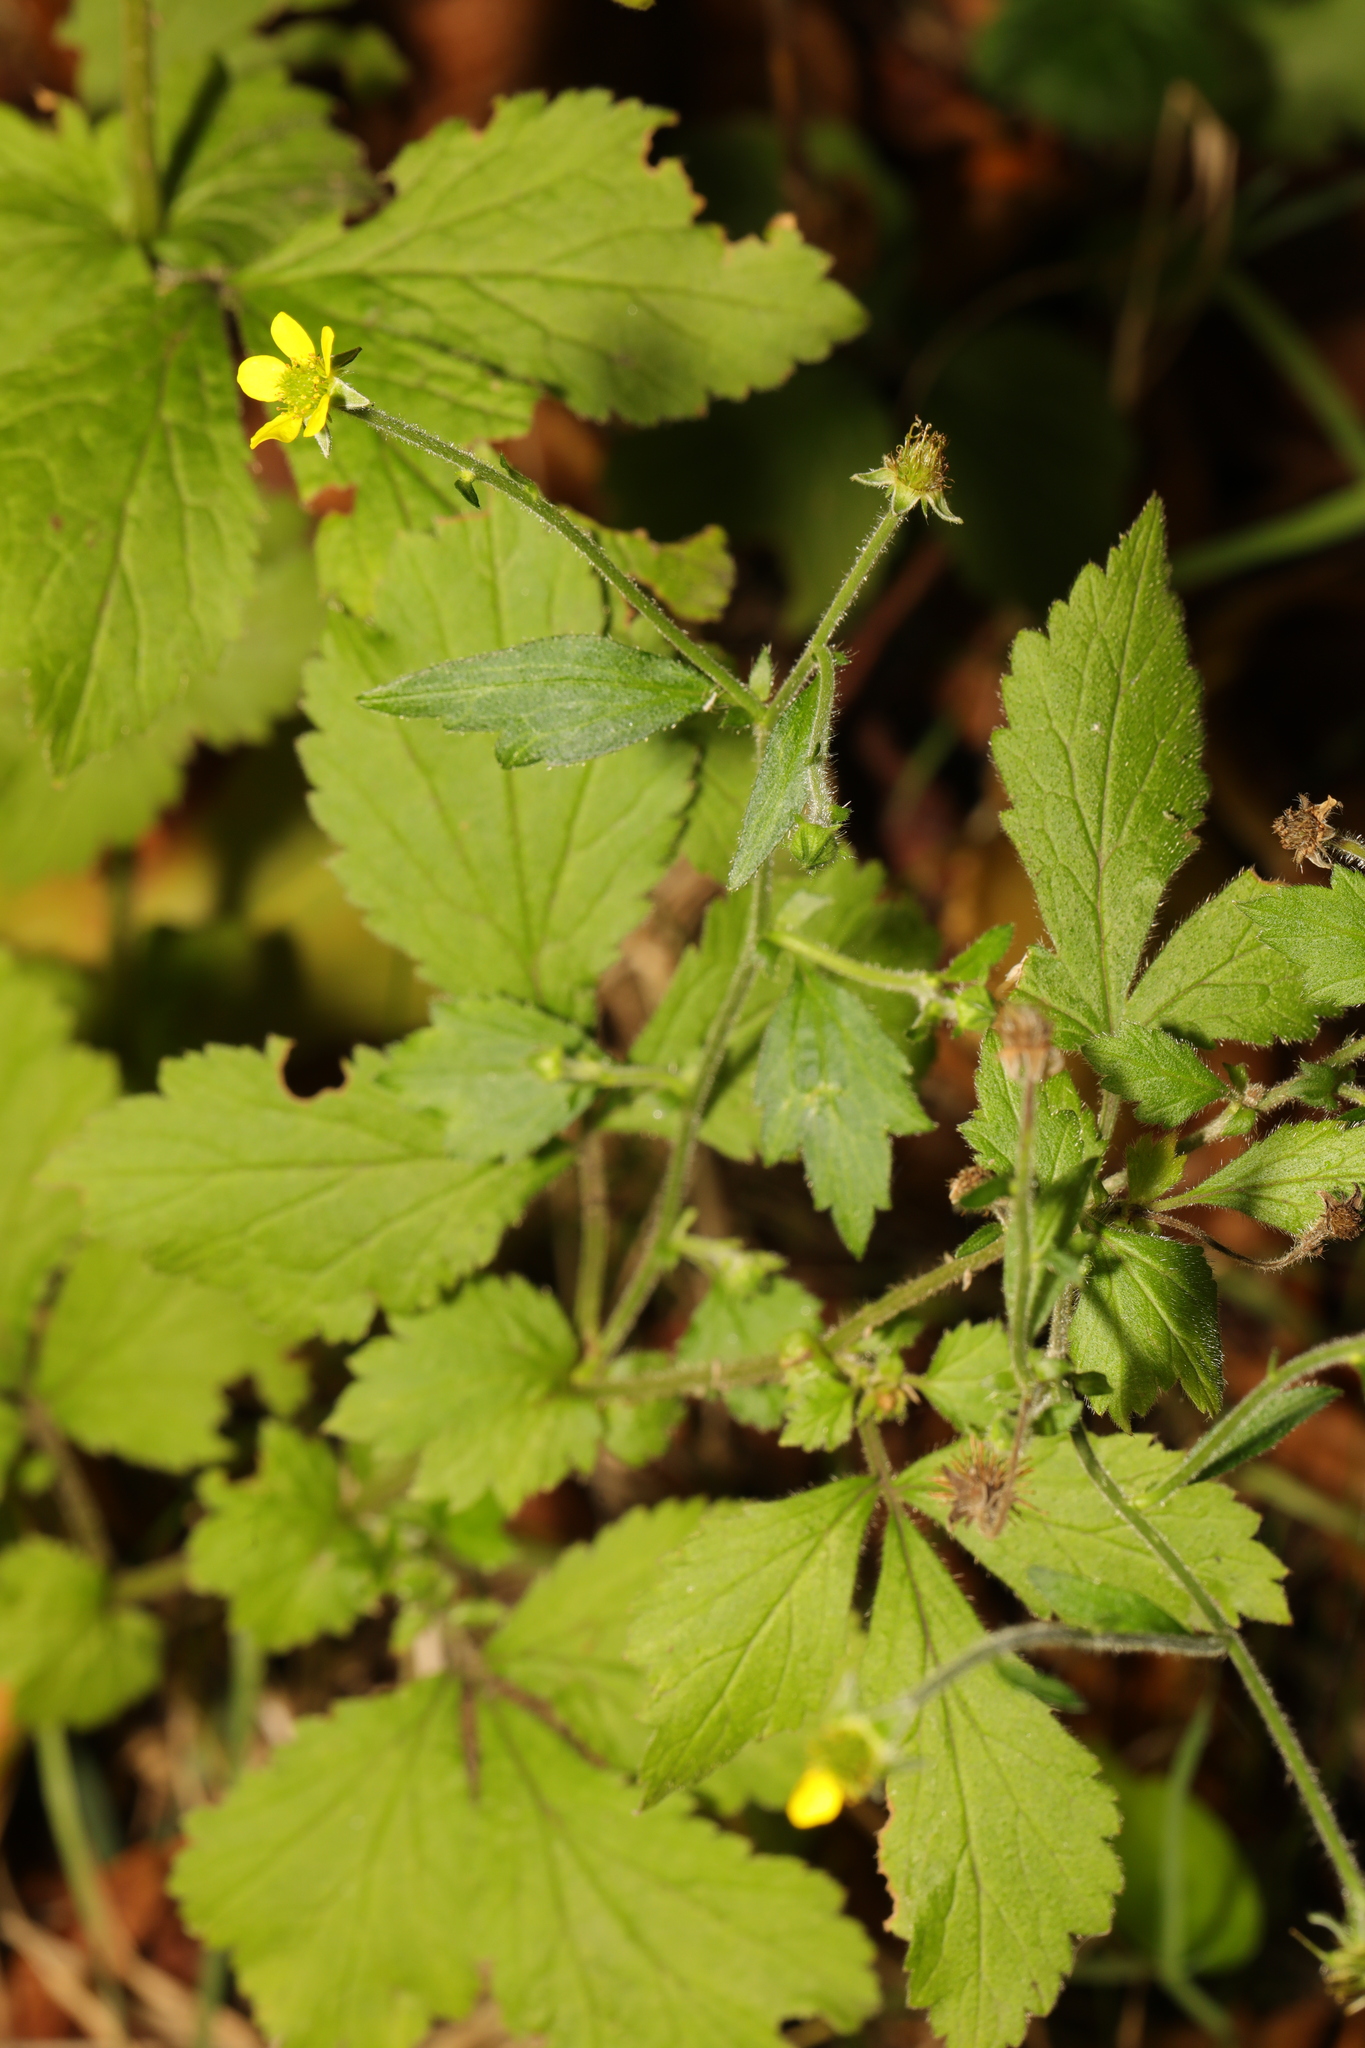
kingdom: Plantae
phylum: Tracheophyta
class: Magnoliopsida
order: Rosales
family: Rosaceae
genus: Geum
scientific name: Geum urbanum
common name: Wood avens
